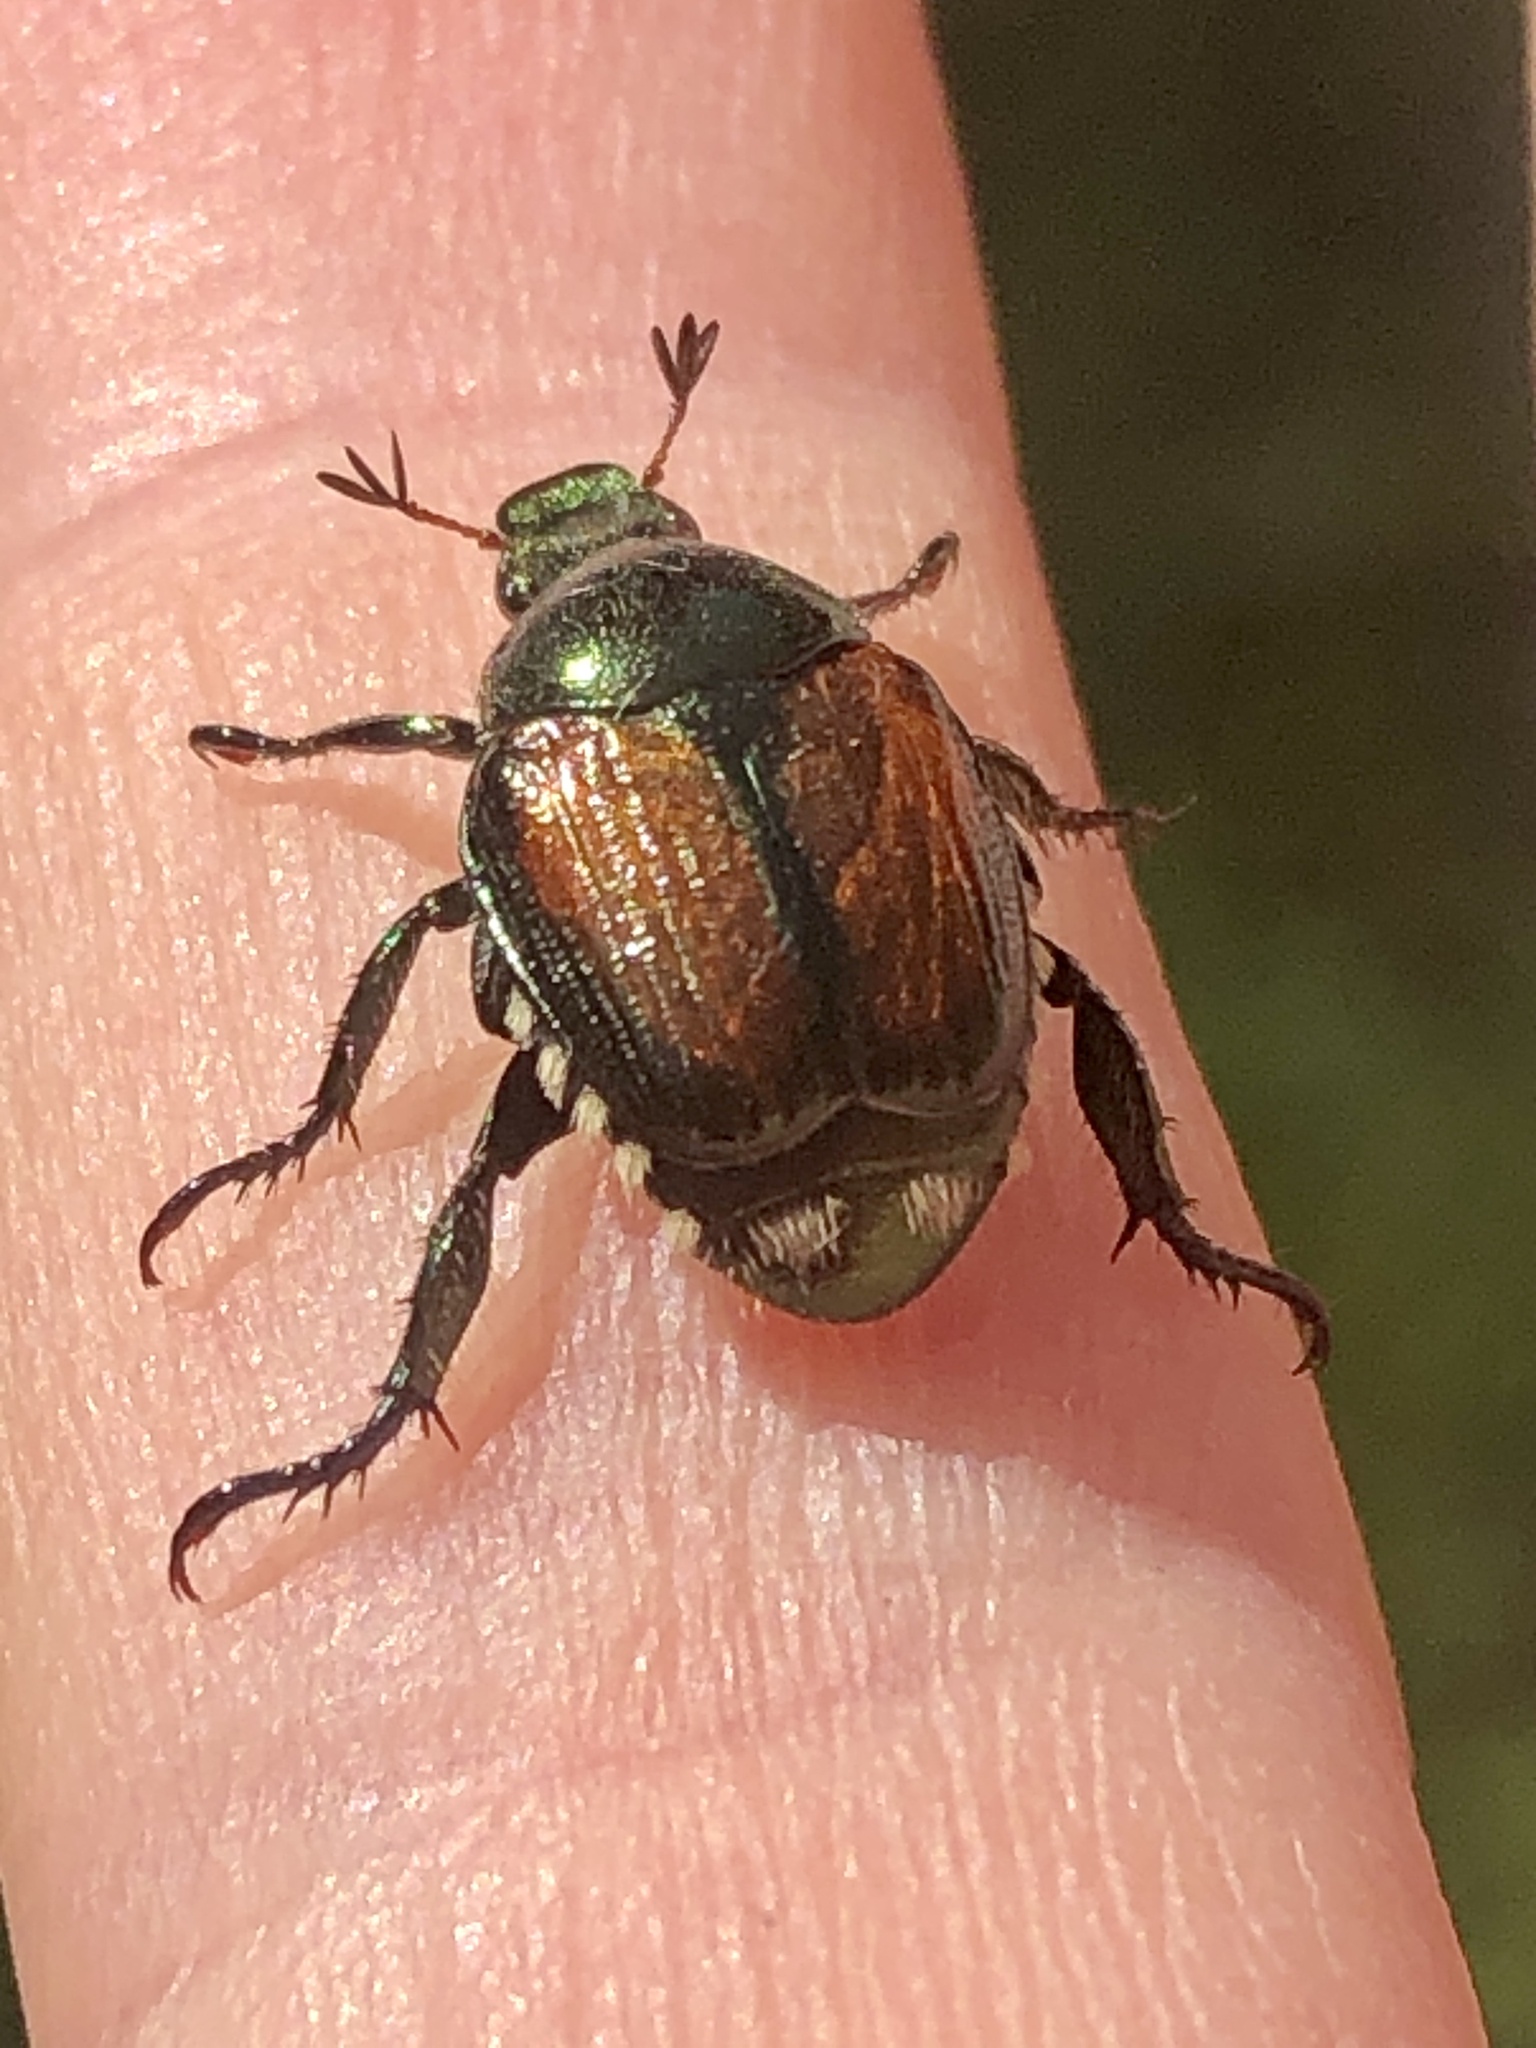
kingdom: Animalia
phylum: Arthropoda
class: Insecta
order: Coleoptera
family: Scarabaeidae
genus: Popillia
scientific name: Popillia japonica
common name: Japanese beetle
